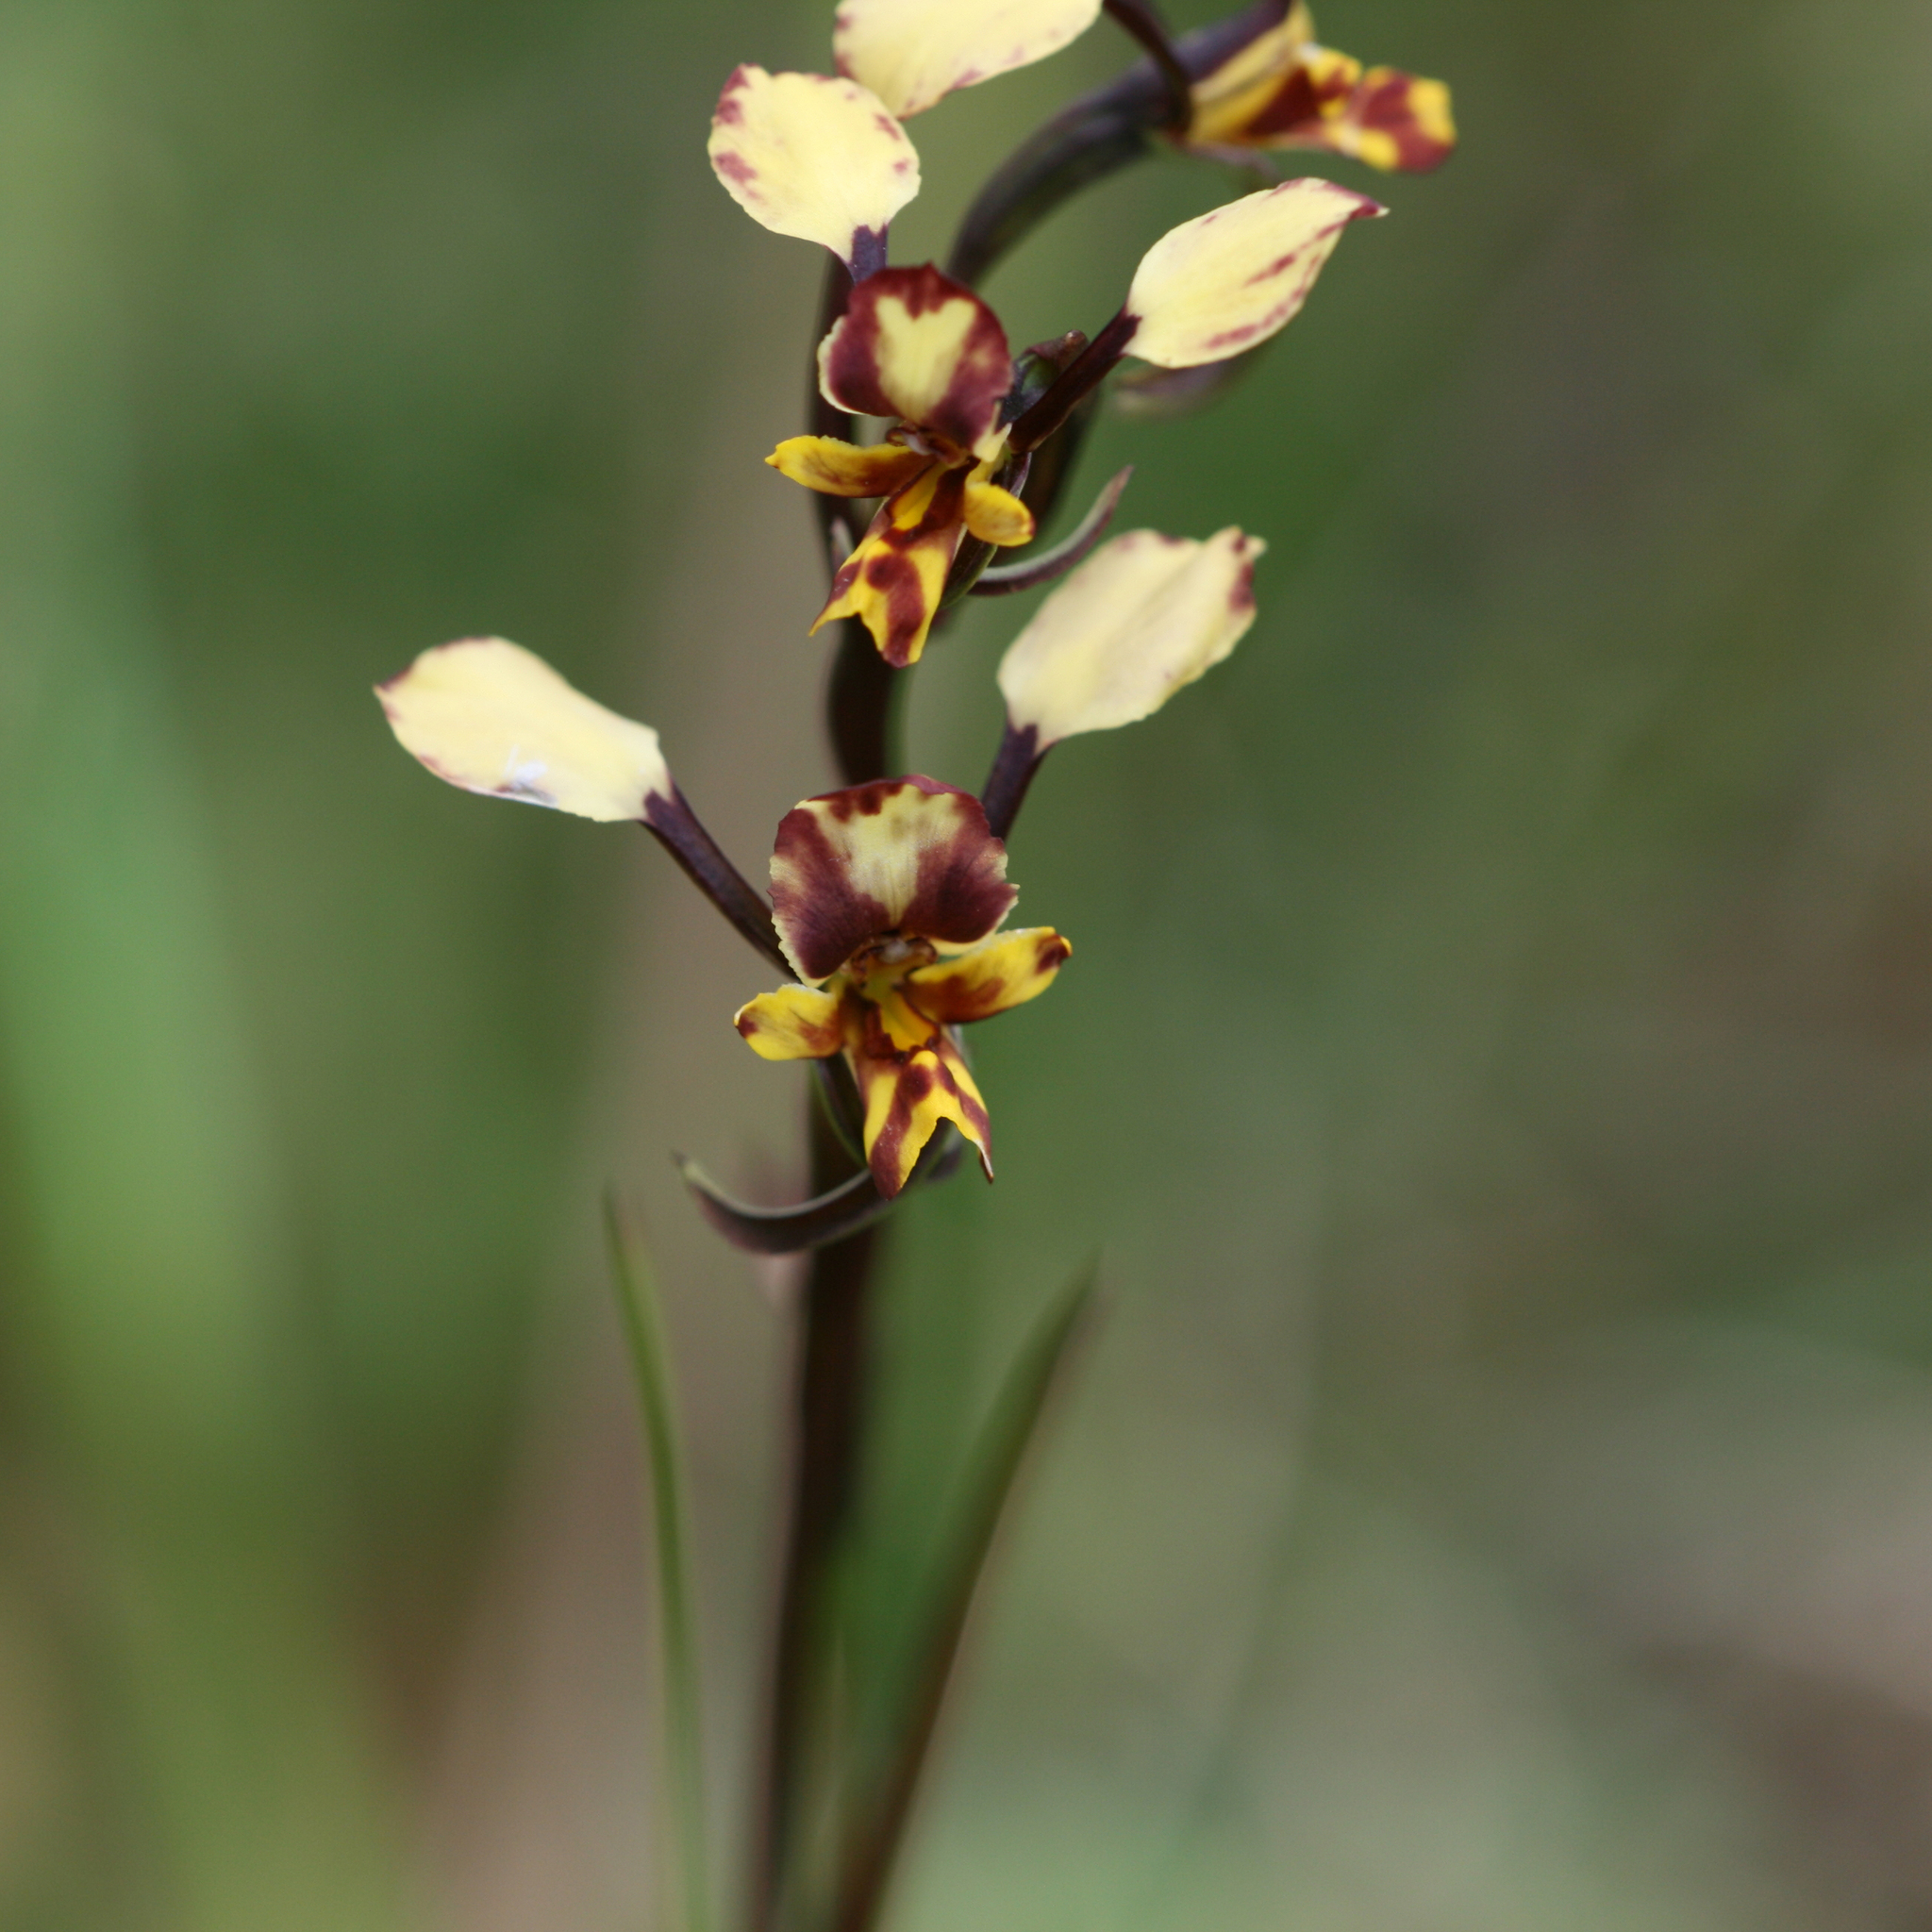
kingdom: Plantae
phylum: Tracheophyta
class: Liliopsida
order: Asparagales
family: Orchidaceae
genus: Diuris
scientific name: Diuris pardina
